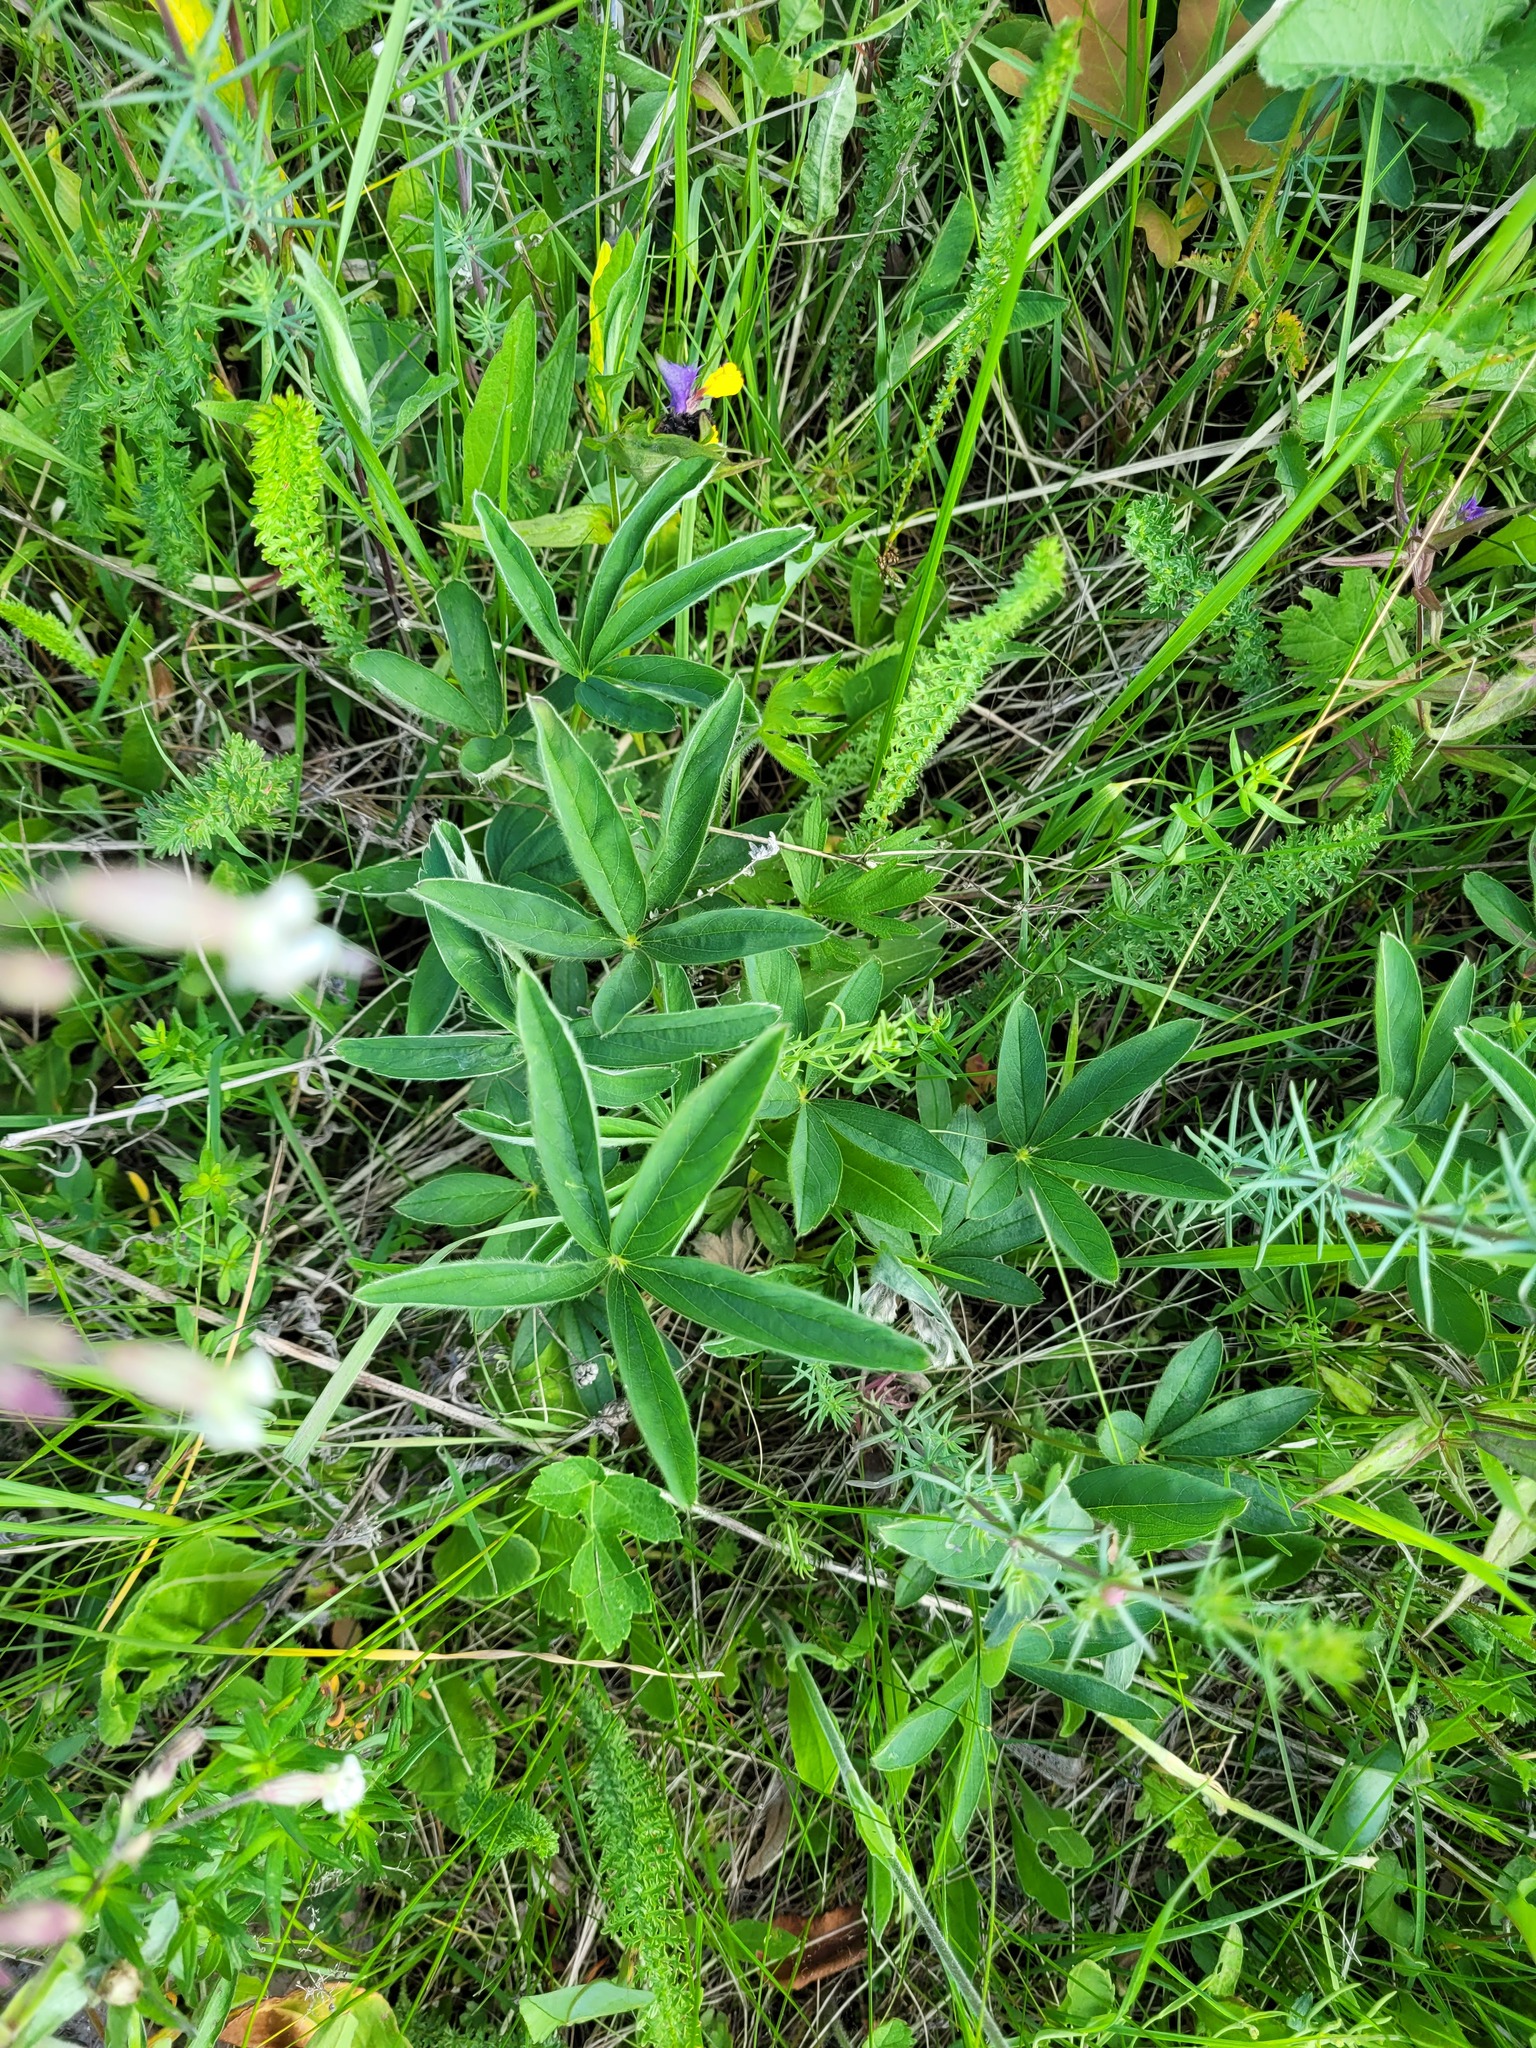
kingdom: Plantae
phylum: Tracheophyta
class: Magnoliopsida
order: Rosales
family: Rosaceae
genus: Potentilla
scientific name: Potentilla alba
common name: White cinquefoil
